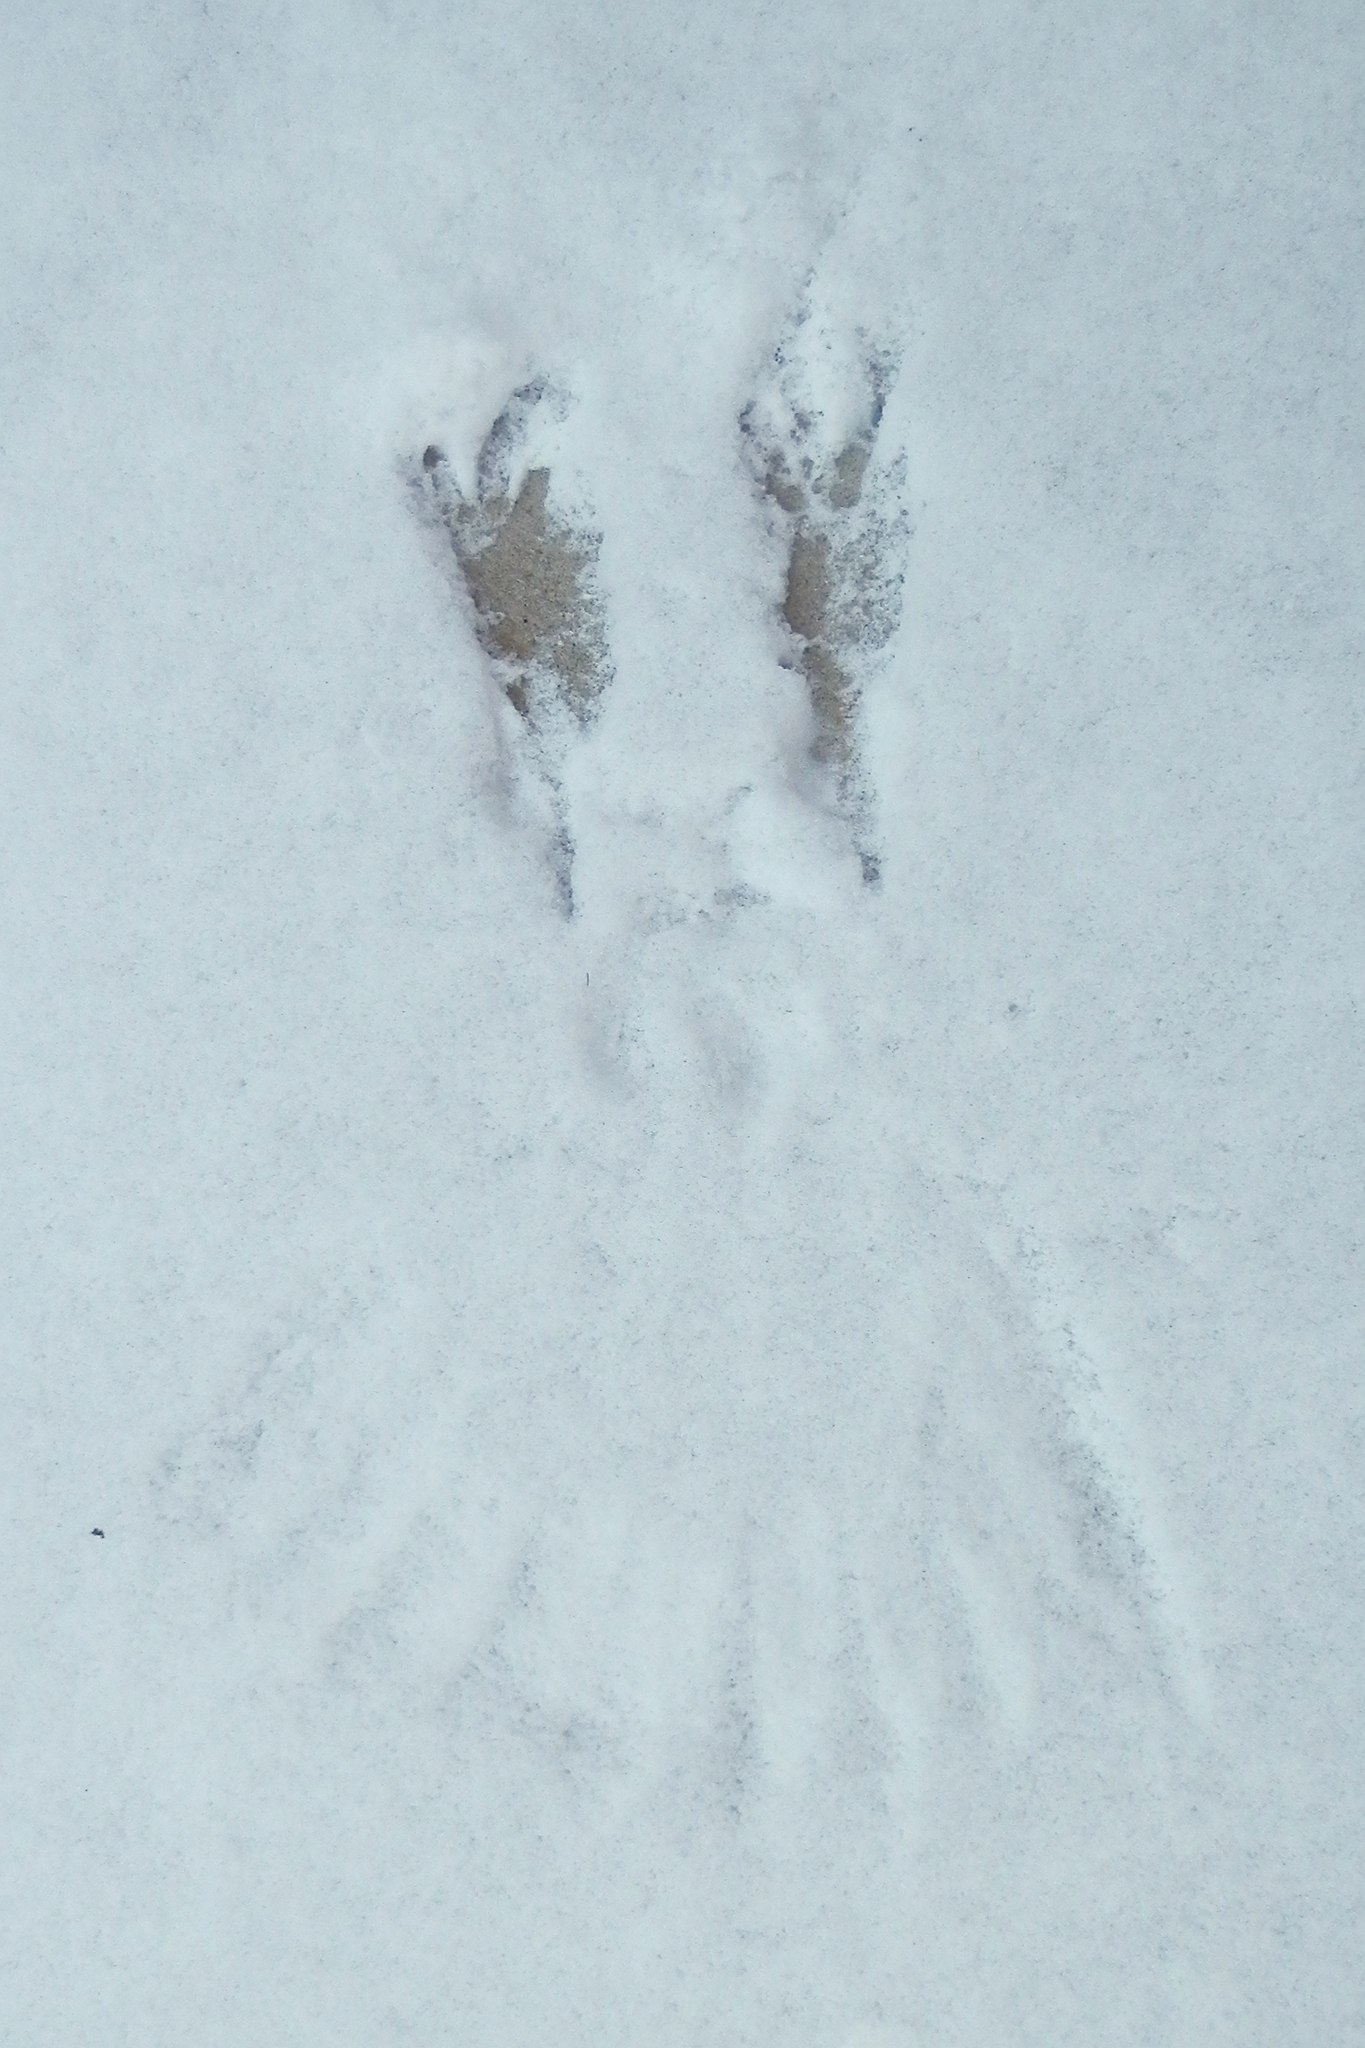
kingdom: Animalia
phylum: Chordata
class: Aves
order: Passeriformes
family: Corvidae
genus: Corvus
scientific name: Corvus brachyrhynchos
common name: American crow
